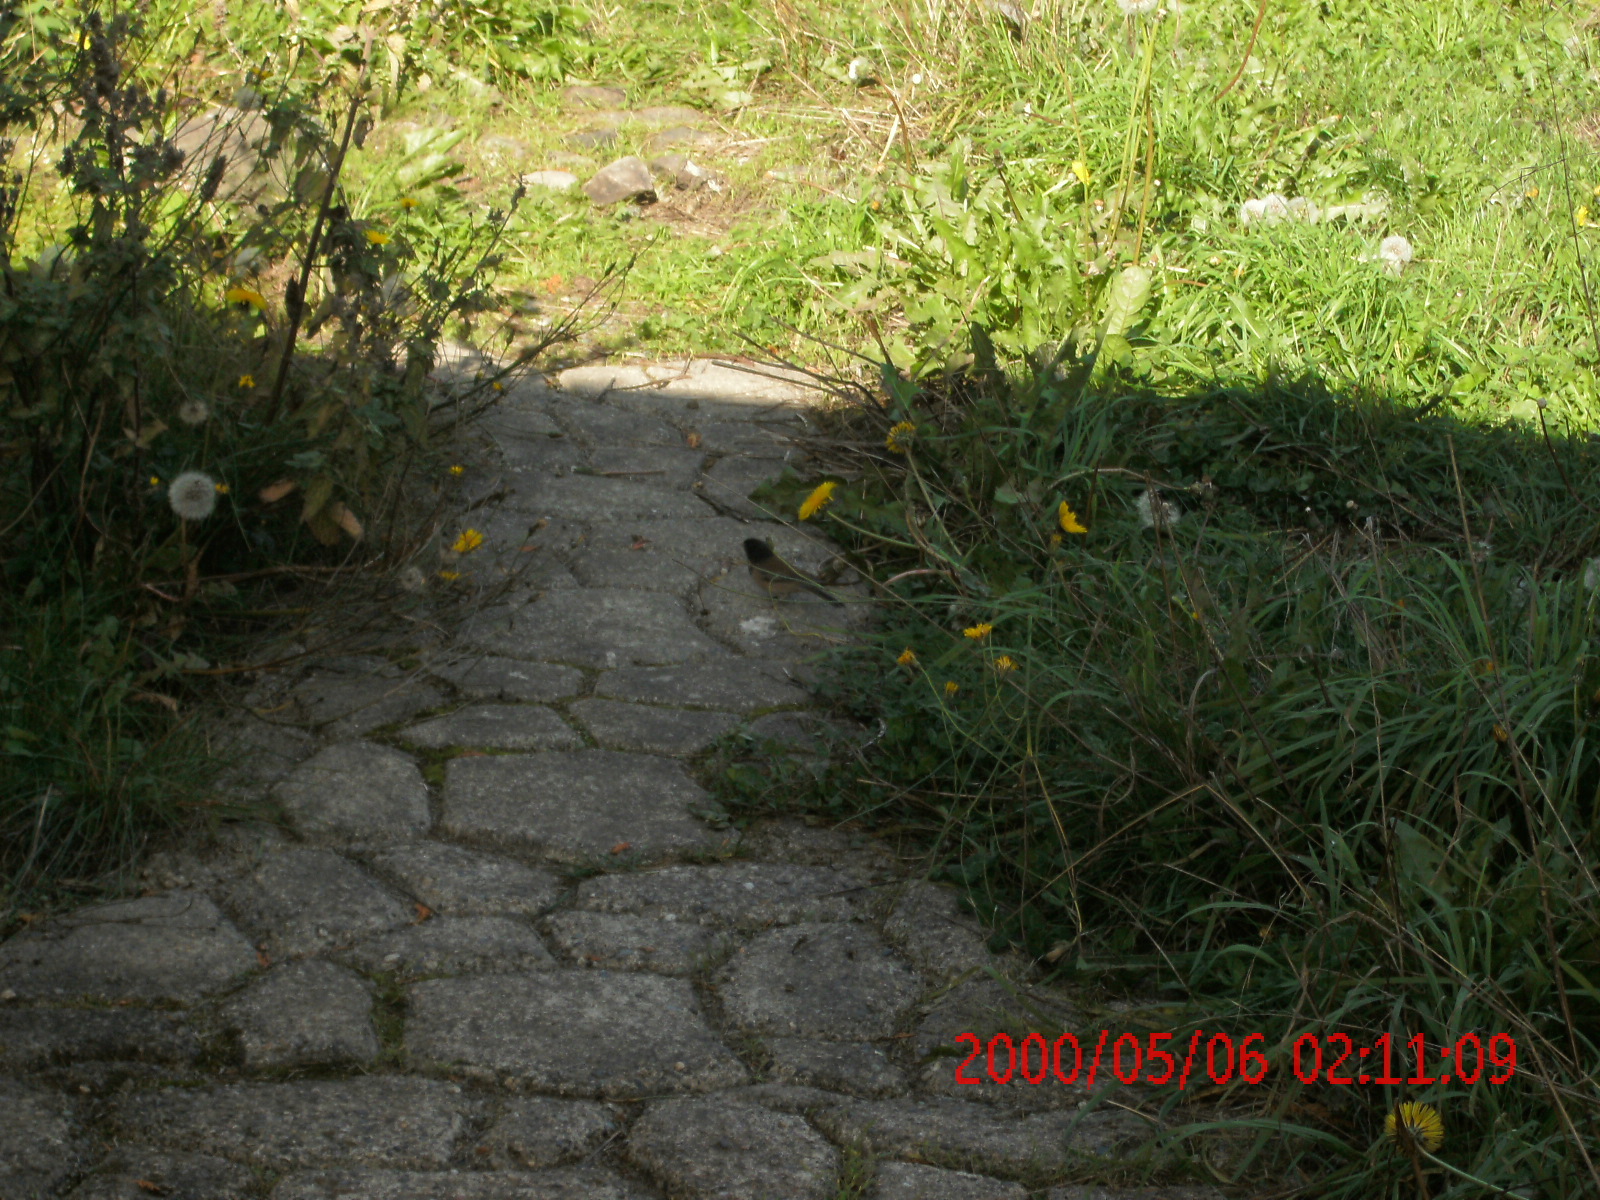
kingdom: Animalia
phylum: Chordata
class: Aves
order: Passeriformes
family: Passerellidae
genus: Junco
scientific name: Junco hyemalis
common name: Dark-eyed junco
